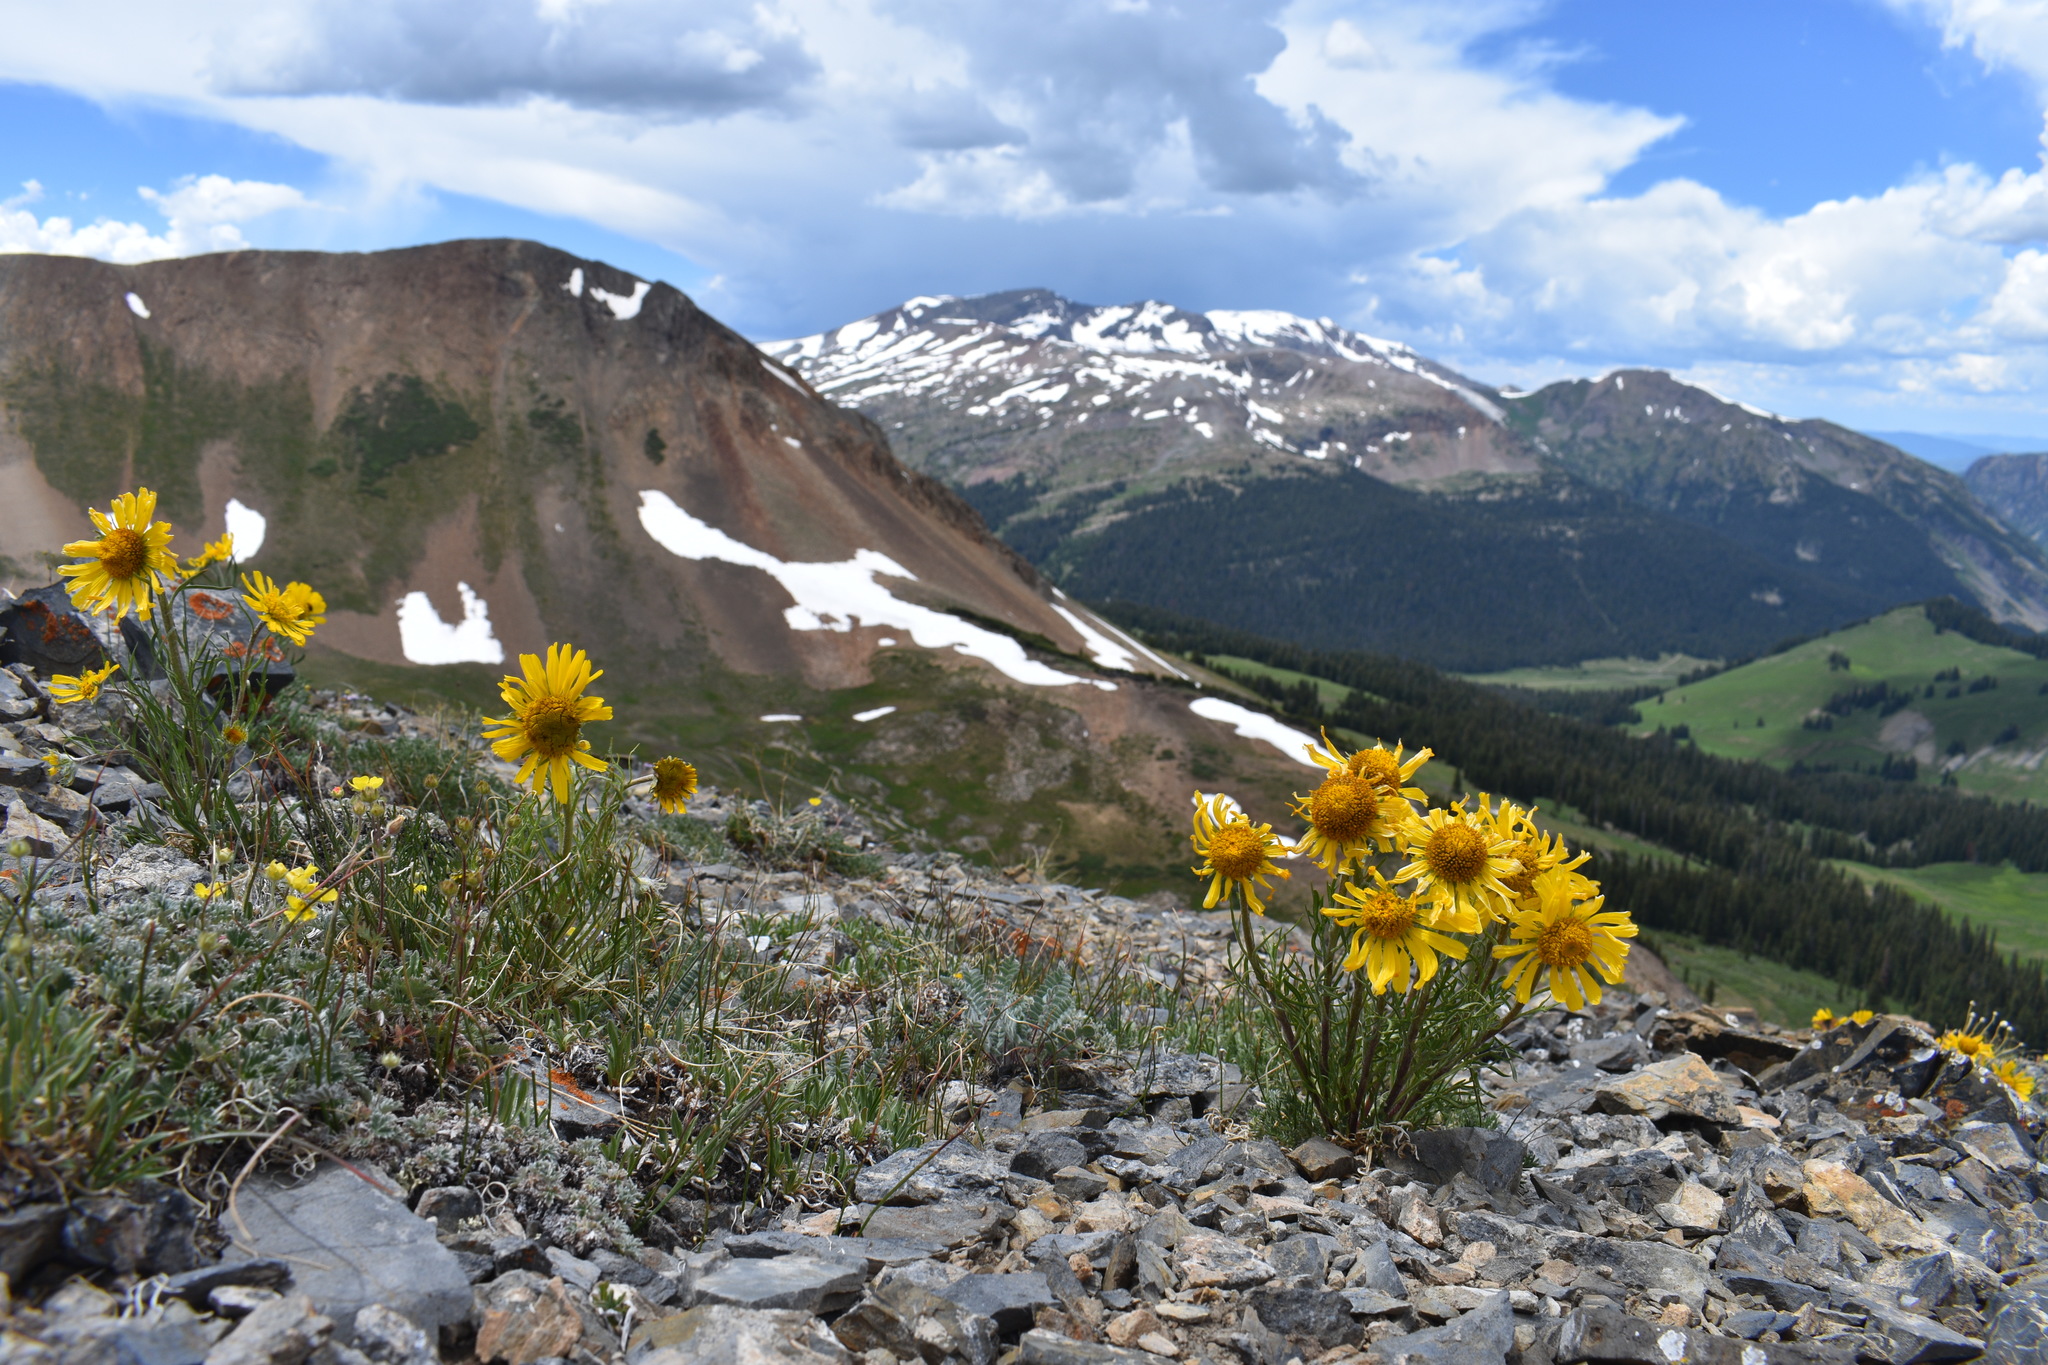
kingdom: Plantae
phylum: Tracheophyta
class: Magnoliopsida
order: Asterales
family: Asteraceae
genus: Hymenoxys
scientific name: Hymenoxys grandiflora
